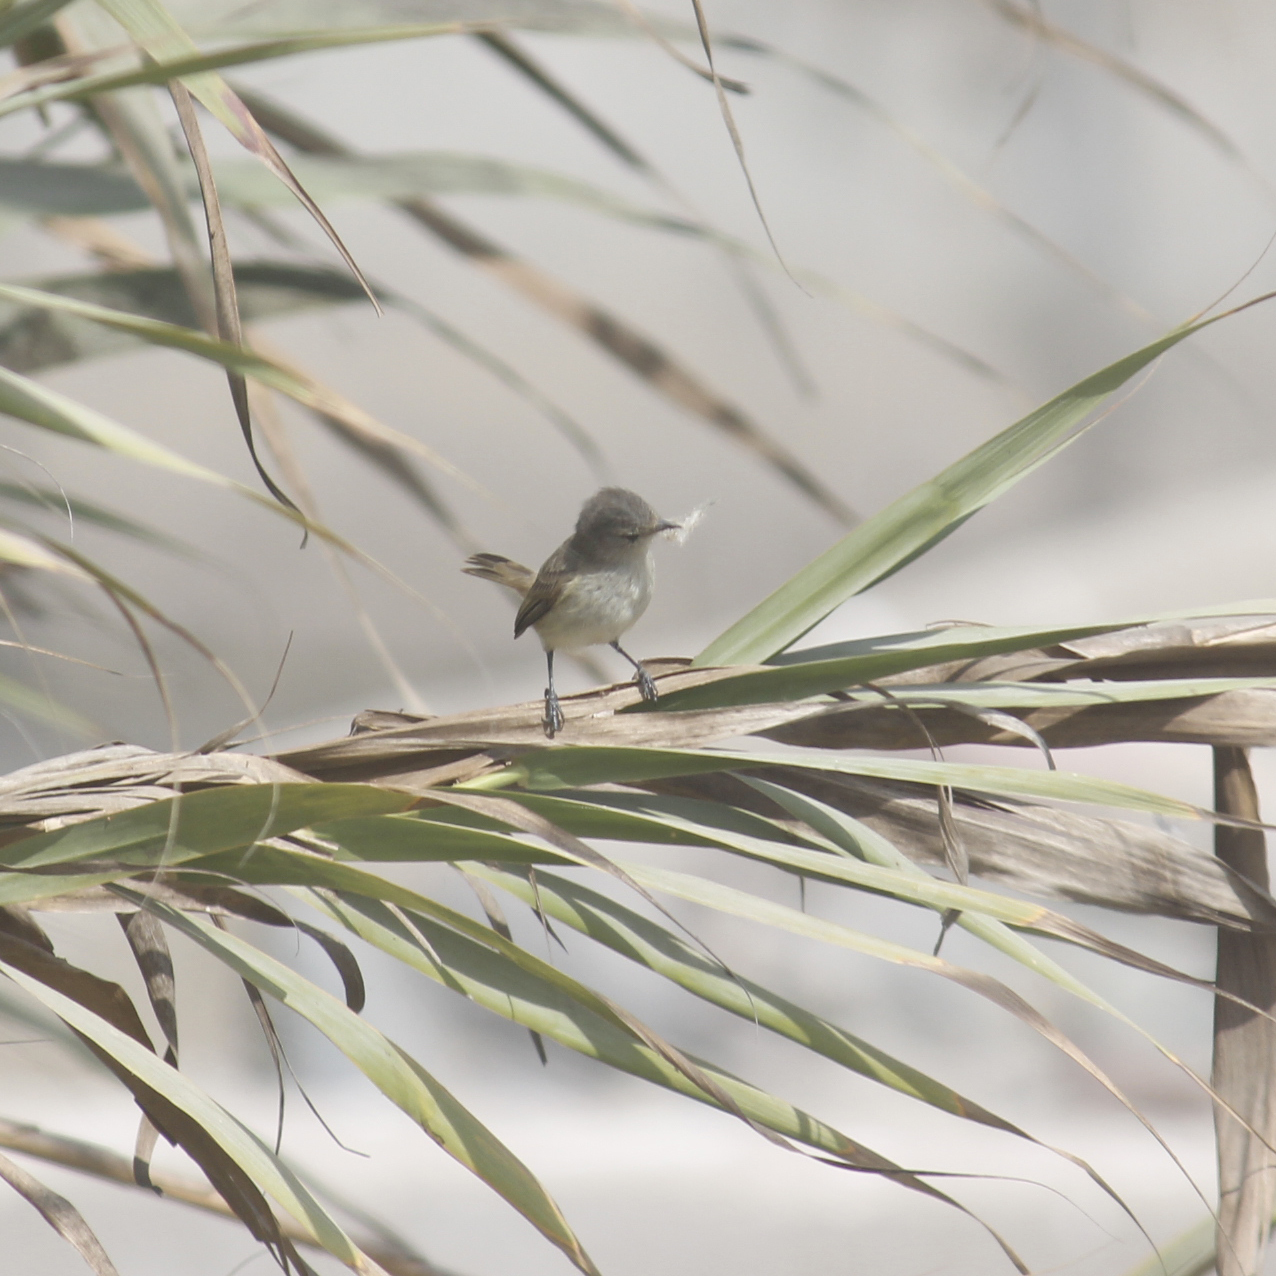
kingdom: Animalia
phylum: Chordata
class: Aves
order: Passeriformes
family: Tyrannidae
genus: Camptostoma
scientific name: Camptostoma obsoletum
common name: Southern beardless-tyrannulet
